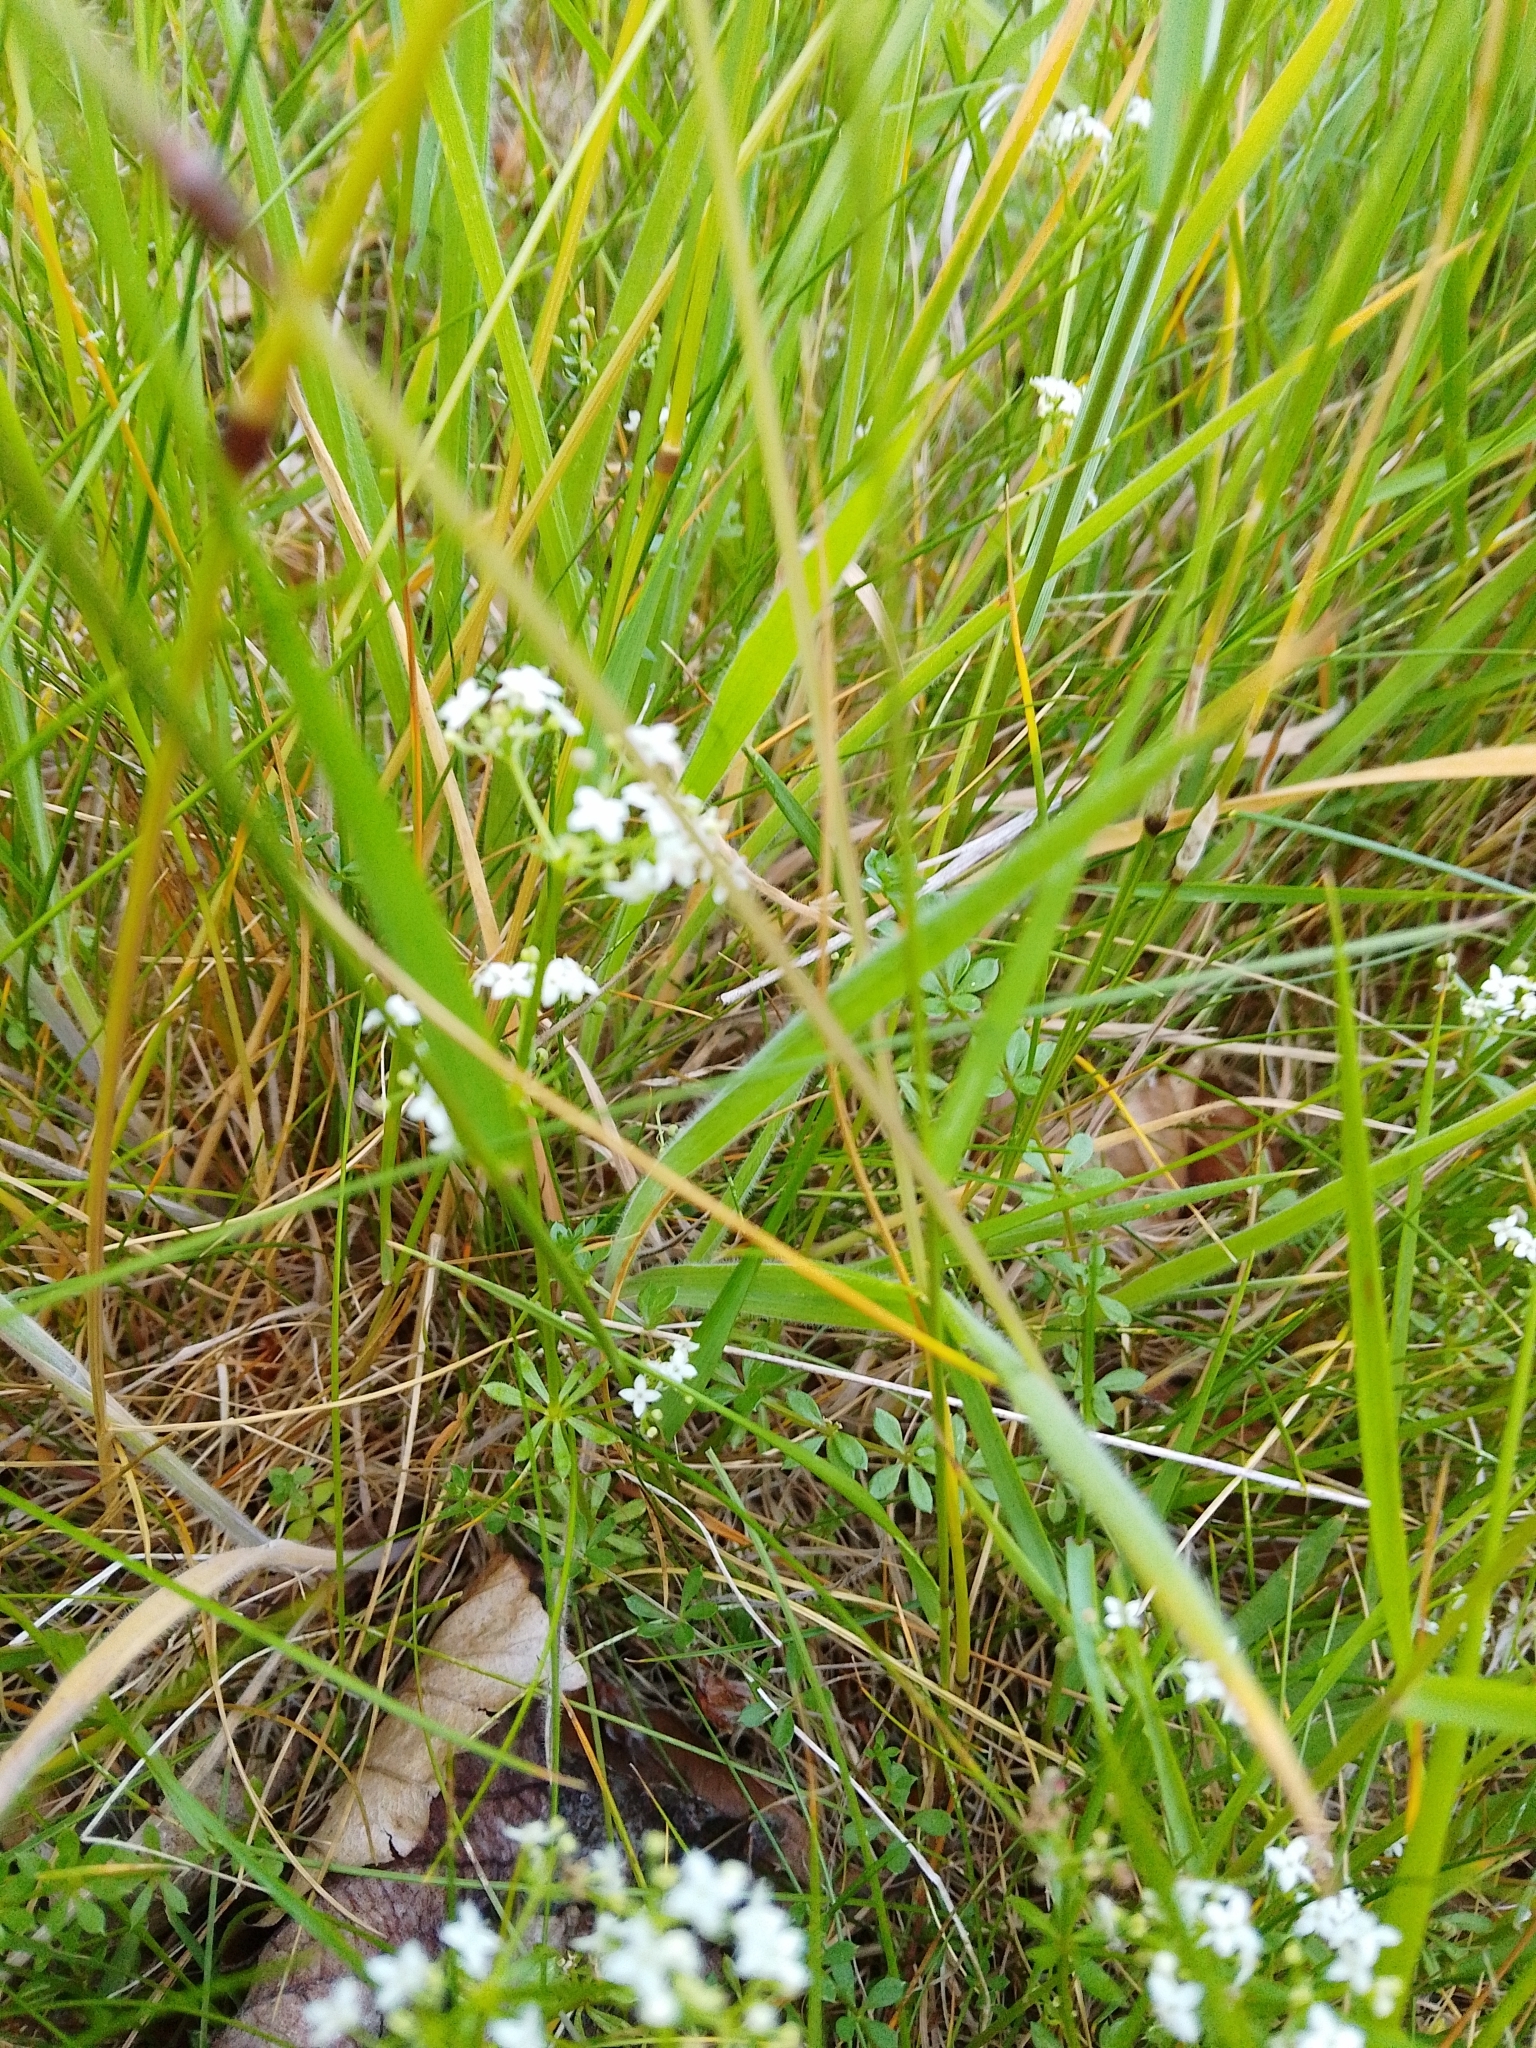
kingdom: Plantae
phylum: Tracheophyta
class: Magnoliopsida
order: Gentianales
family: Rubiaceae
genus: Galium
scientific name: Galium saxatile
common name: Heath bedstraw
